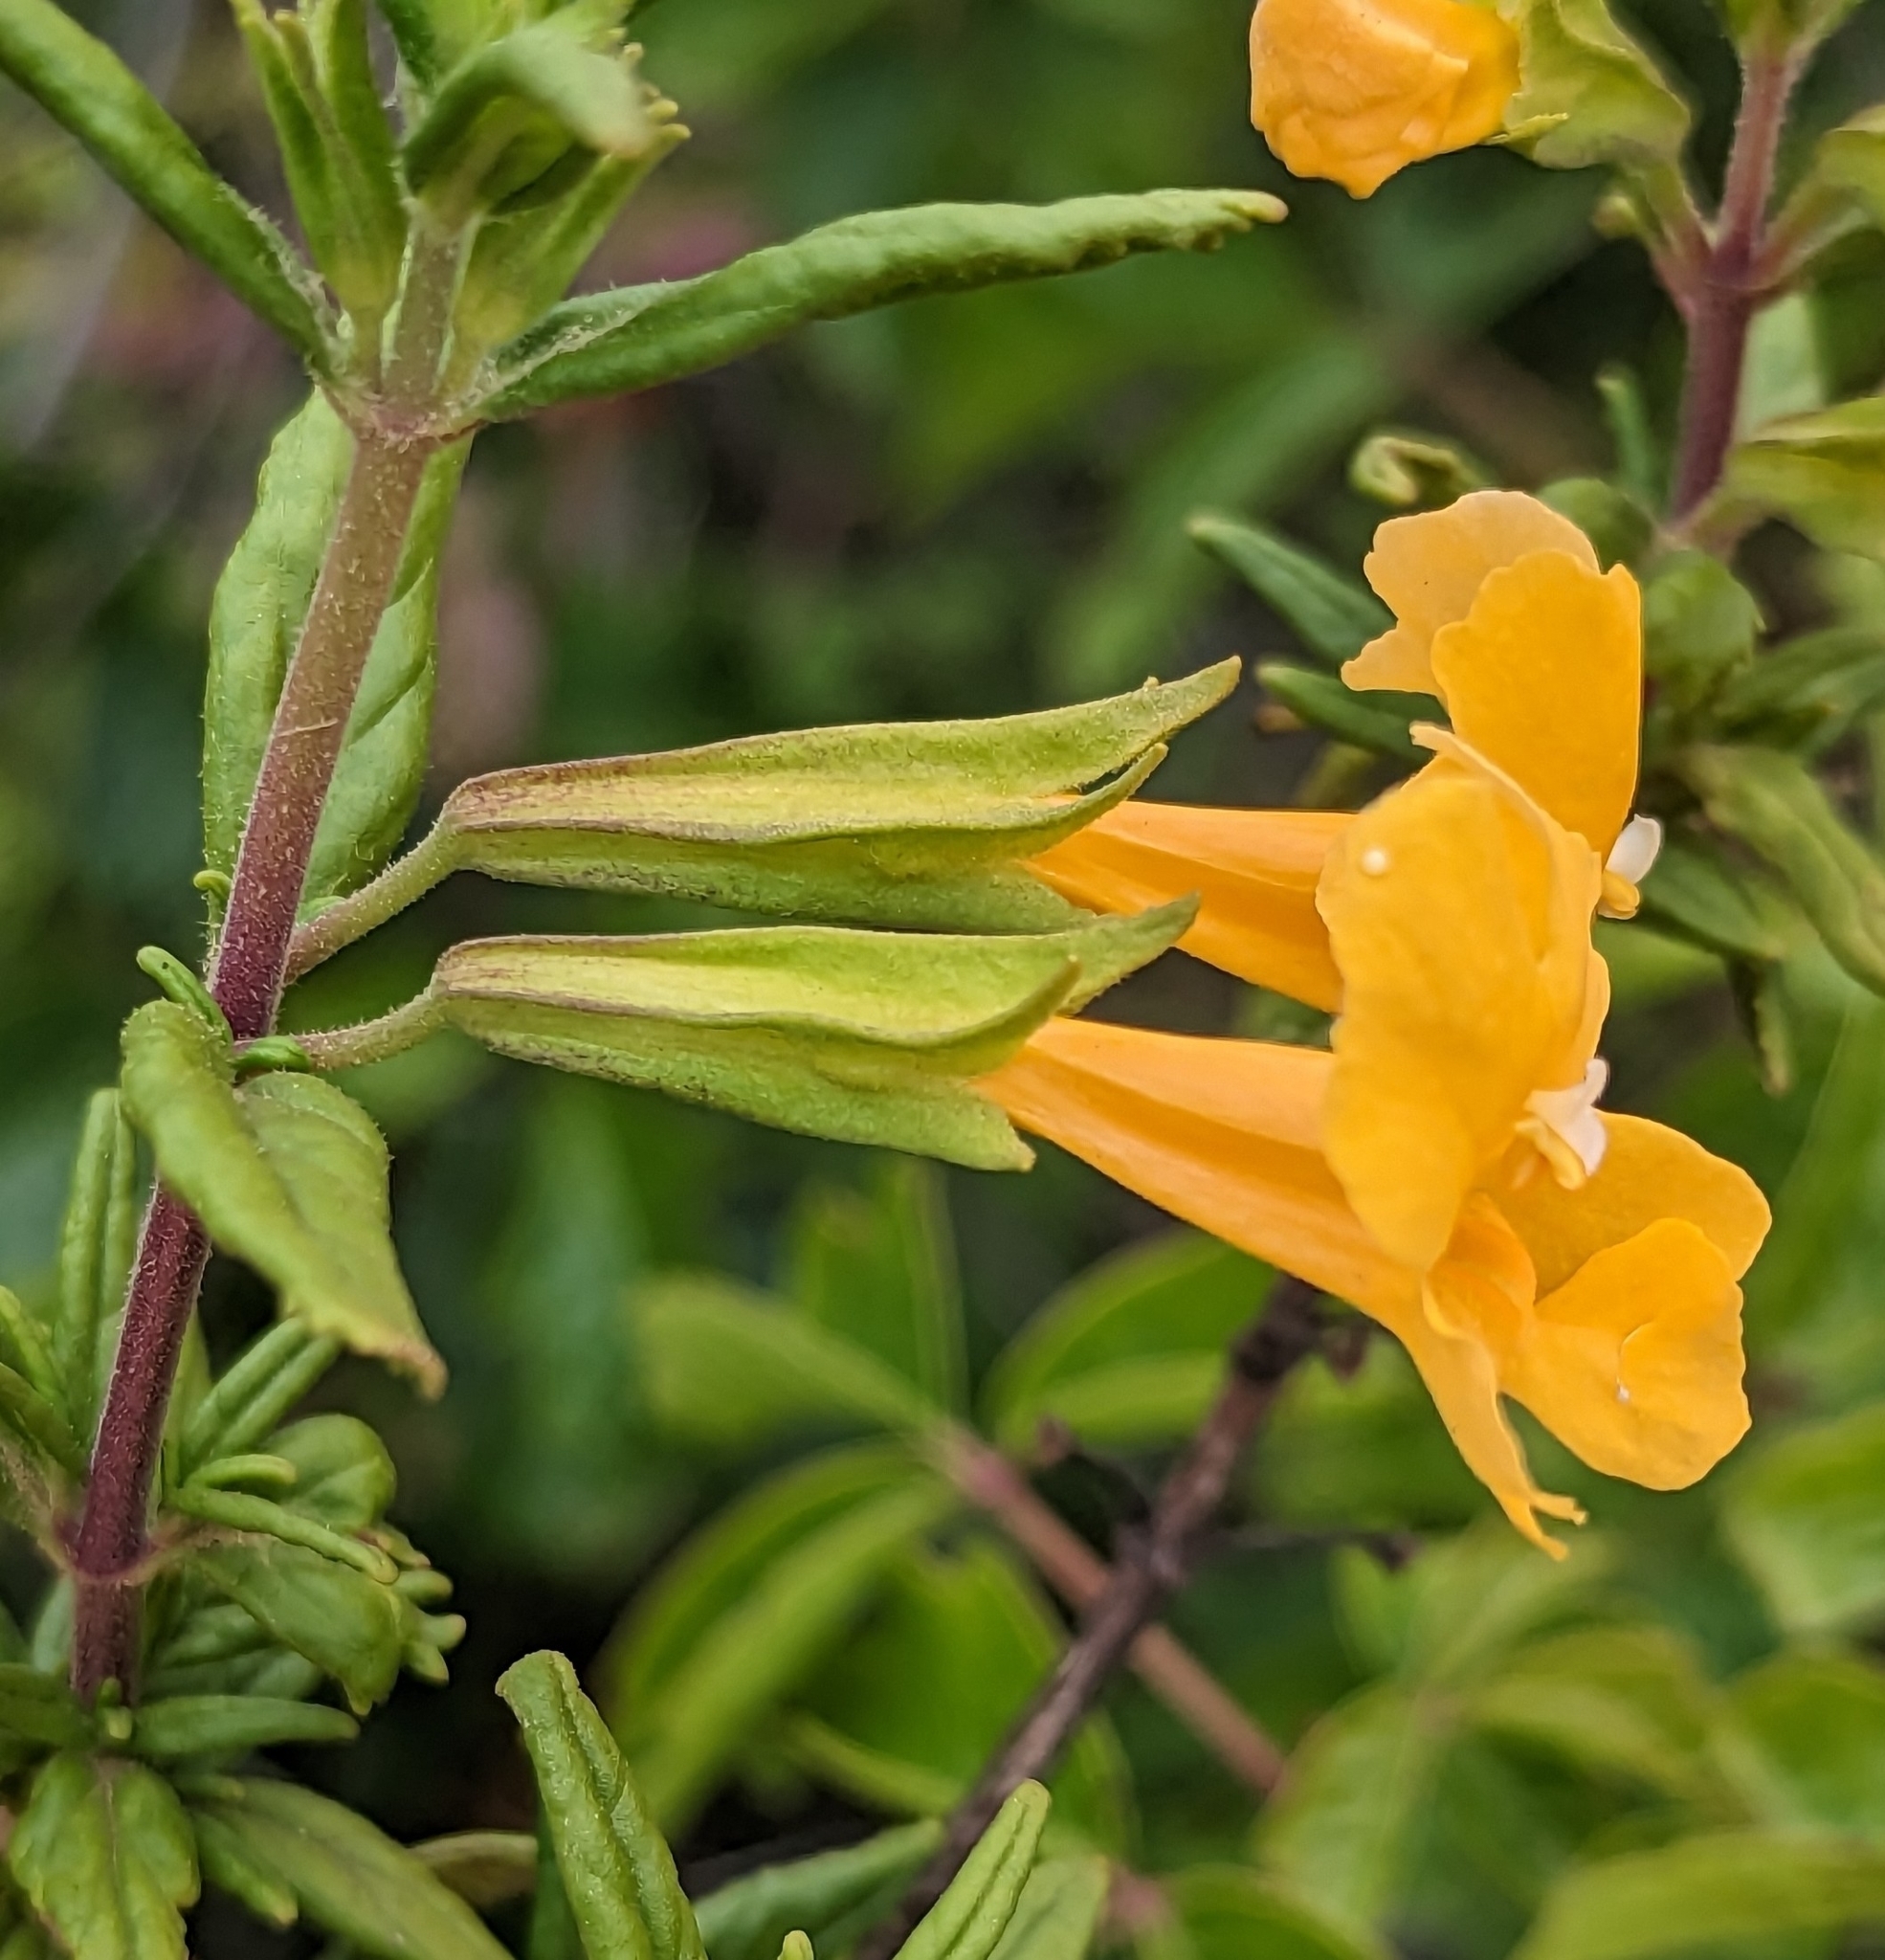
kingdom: Plantae
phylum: Tracheophyta
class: Magnoliopsida
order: Lamiales
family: Phrymaceae
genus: Diplacus
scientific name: Diplacus aurantiacus
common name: Bush monkey-flower
